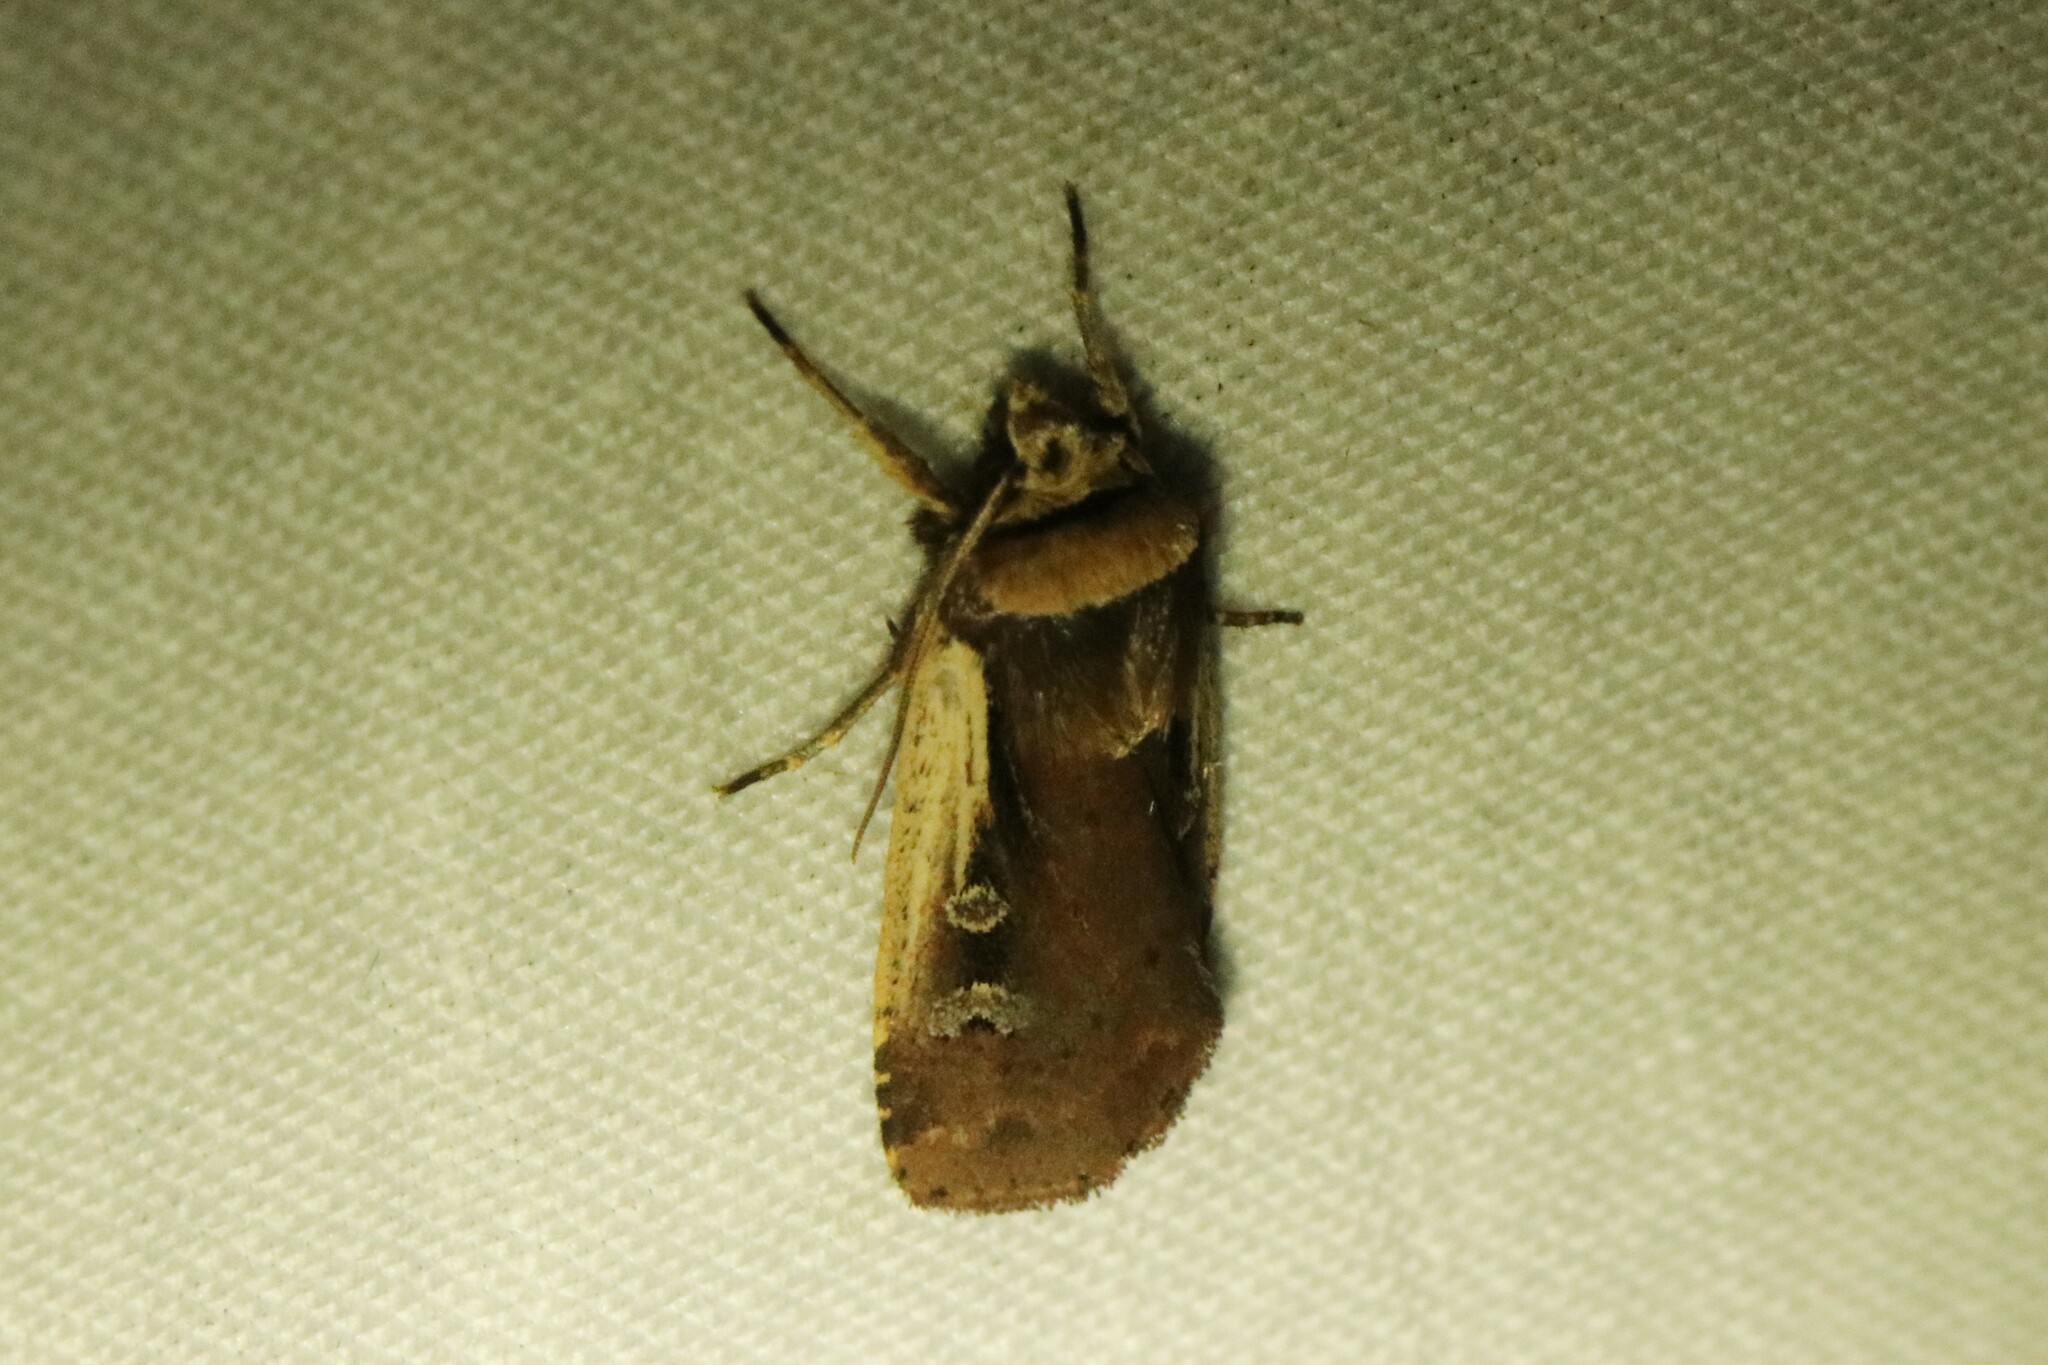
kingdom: Animalia
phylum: Arthropoda
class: Insecta
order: Lepidoptera
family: Noctuidae
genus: Ochropleura
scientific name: Ochropleura implecta
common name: Flame-shouldered dart
